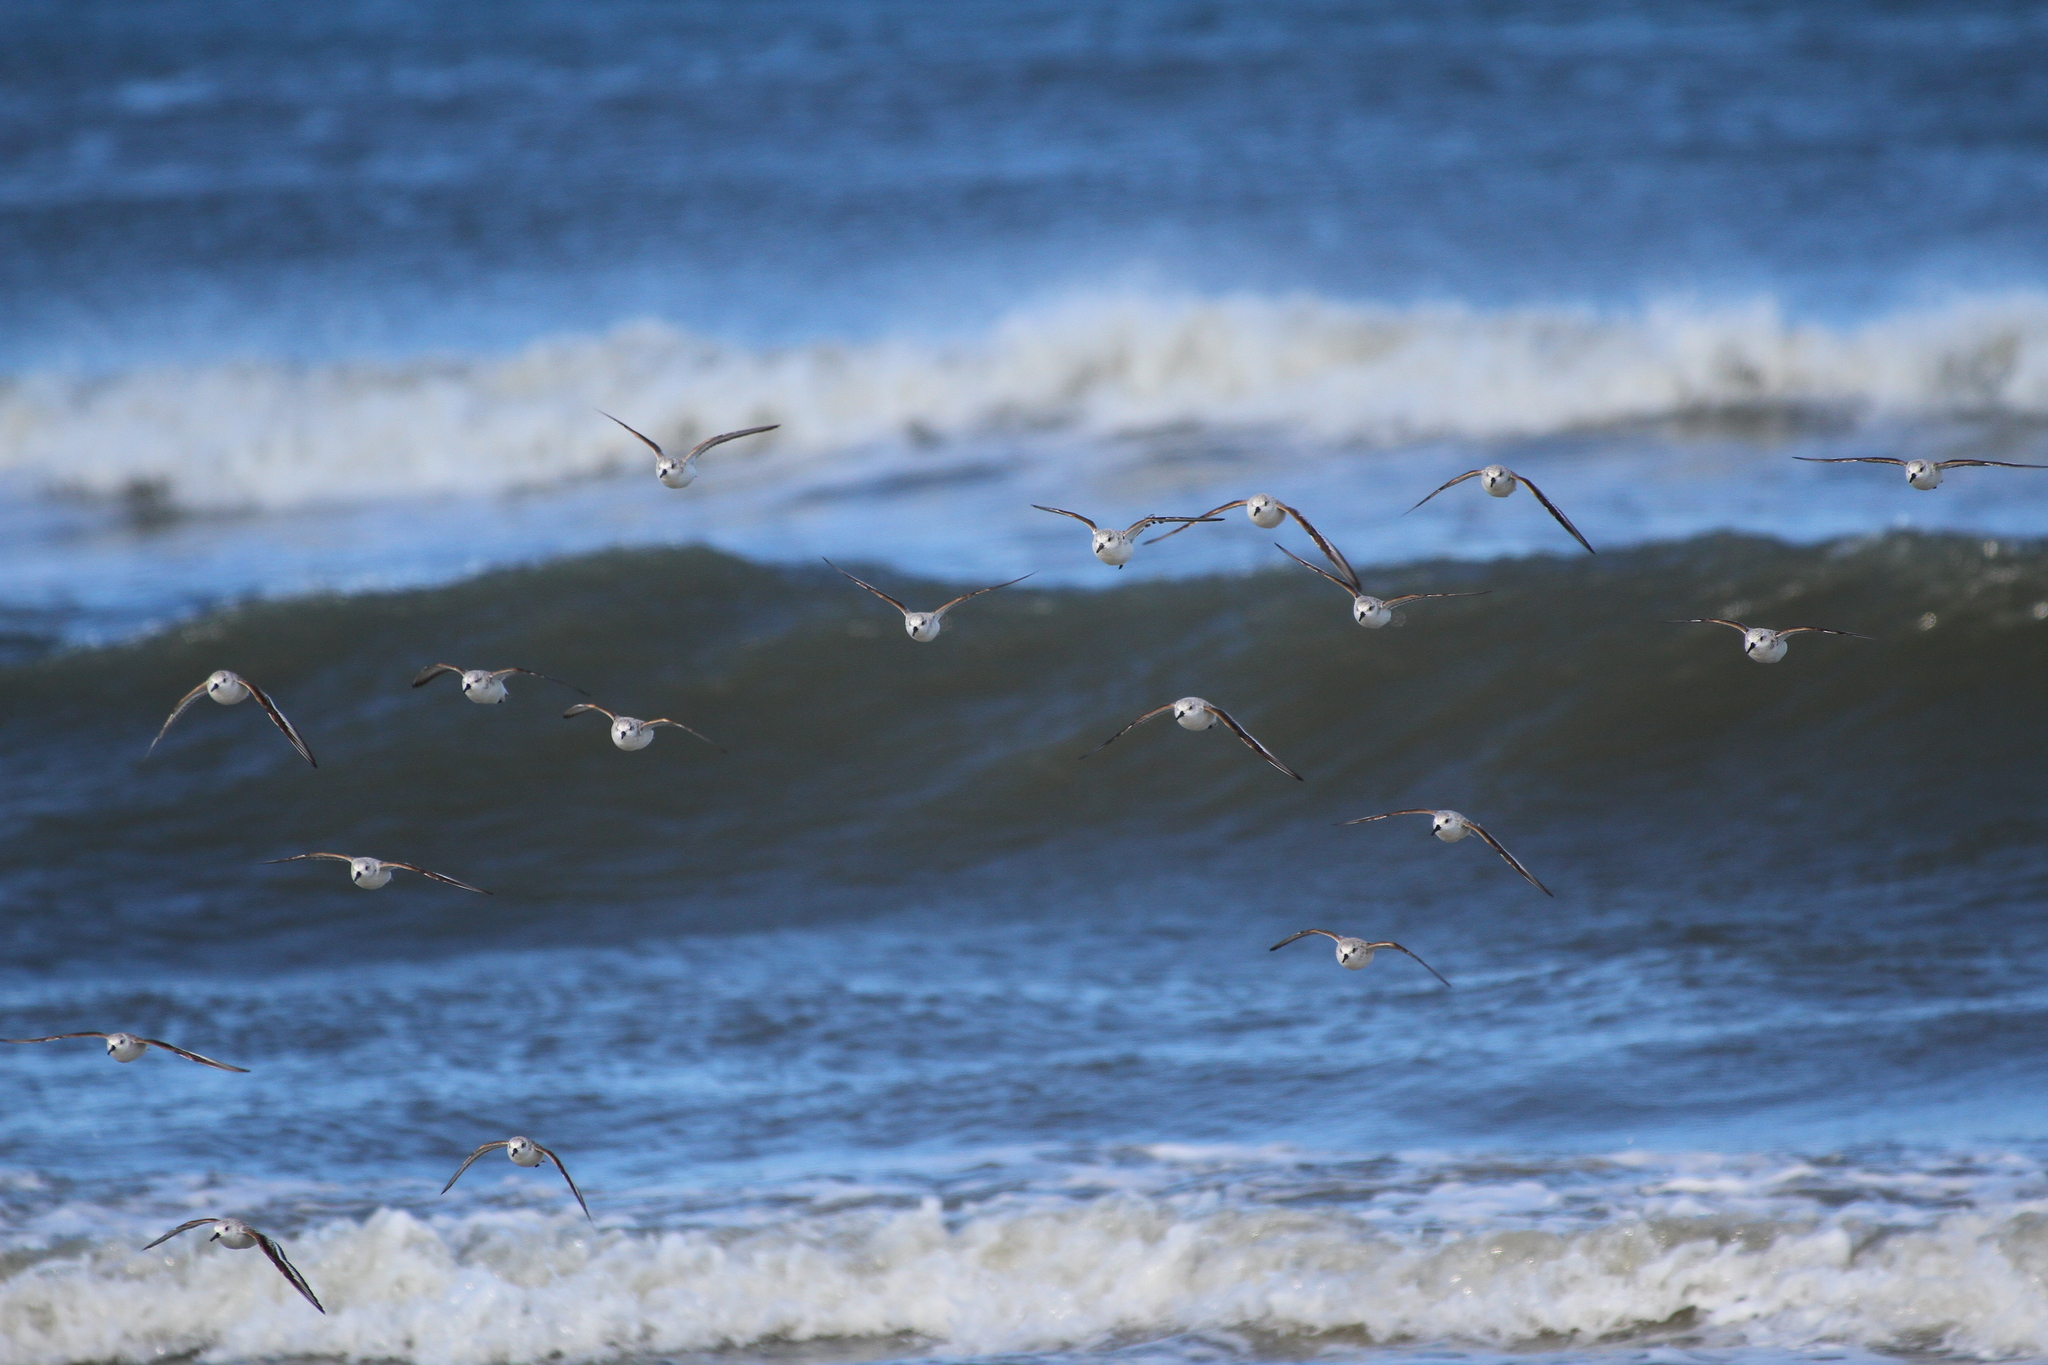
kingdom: Animalia
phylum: Chordata
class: Aves
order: Charadriiformes
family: Scolopacidae
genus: Calidris
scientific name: Calidris alba
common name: Sanderling
